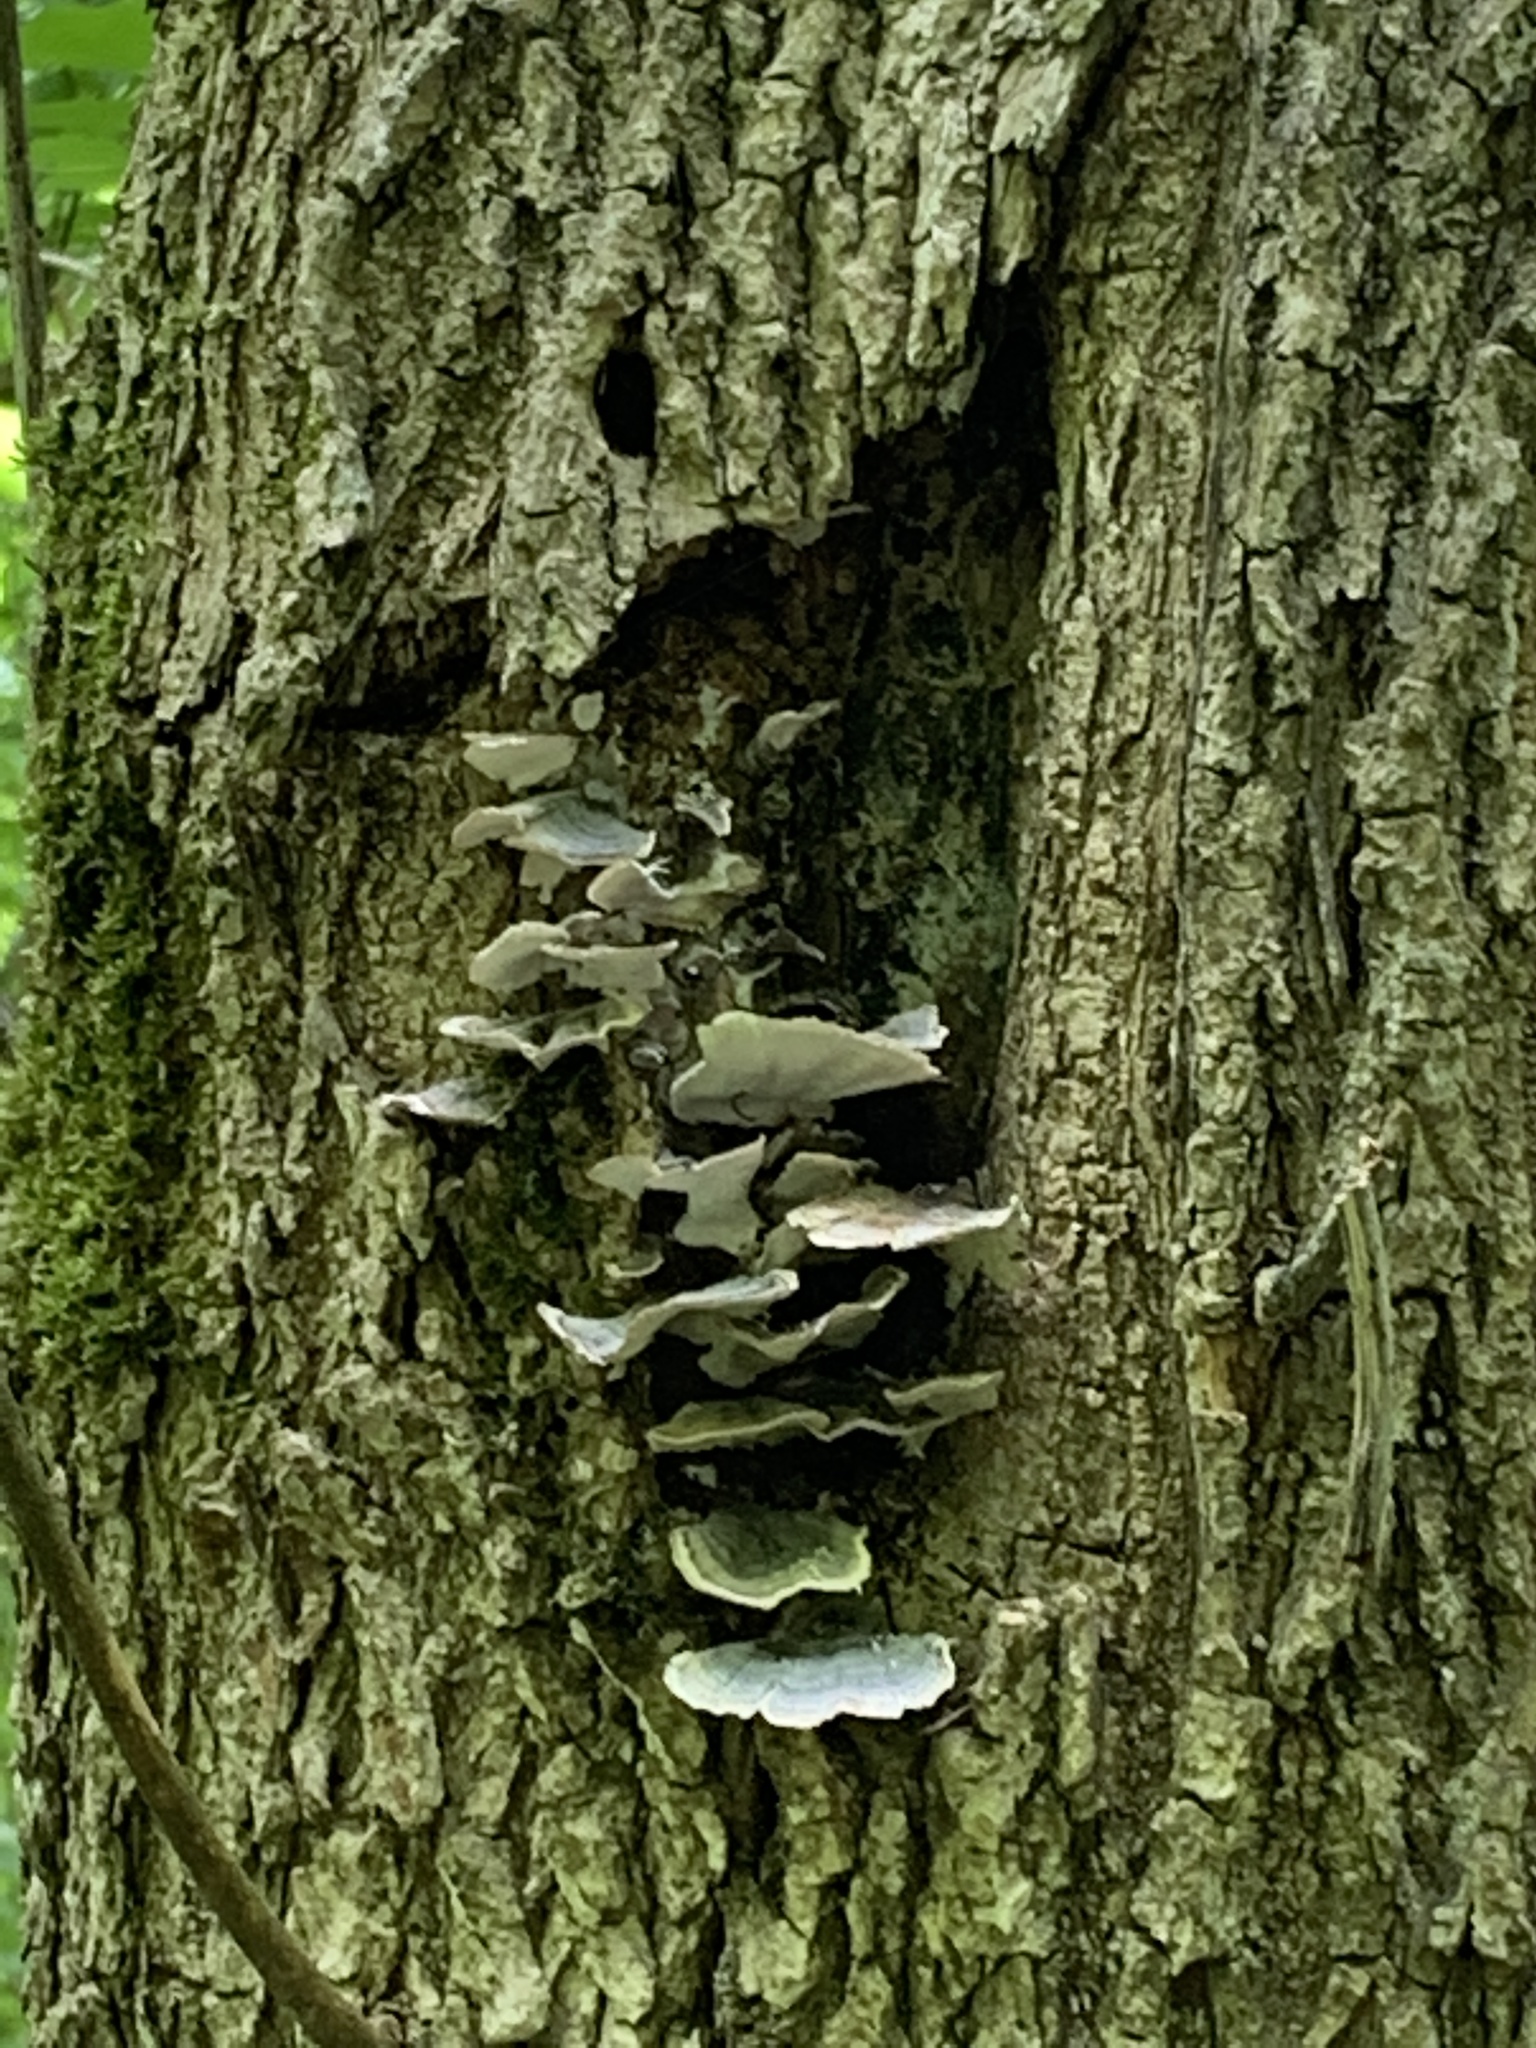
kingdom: Fungi
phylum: Basidiomycota
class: Agaricomycetes
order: Polyporales
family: Polyporaceae
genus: Trametes
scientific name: Trametes versicolor
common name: Turkeytail
